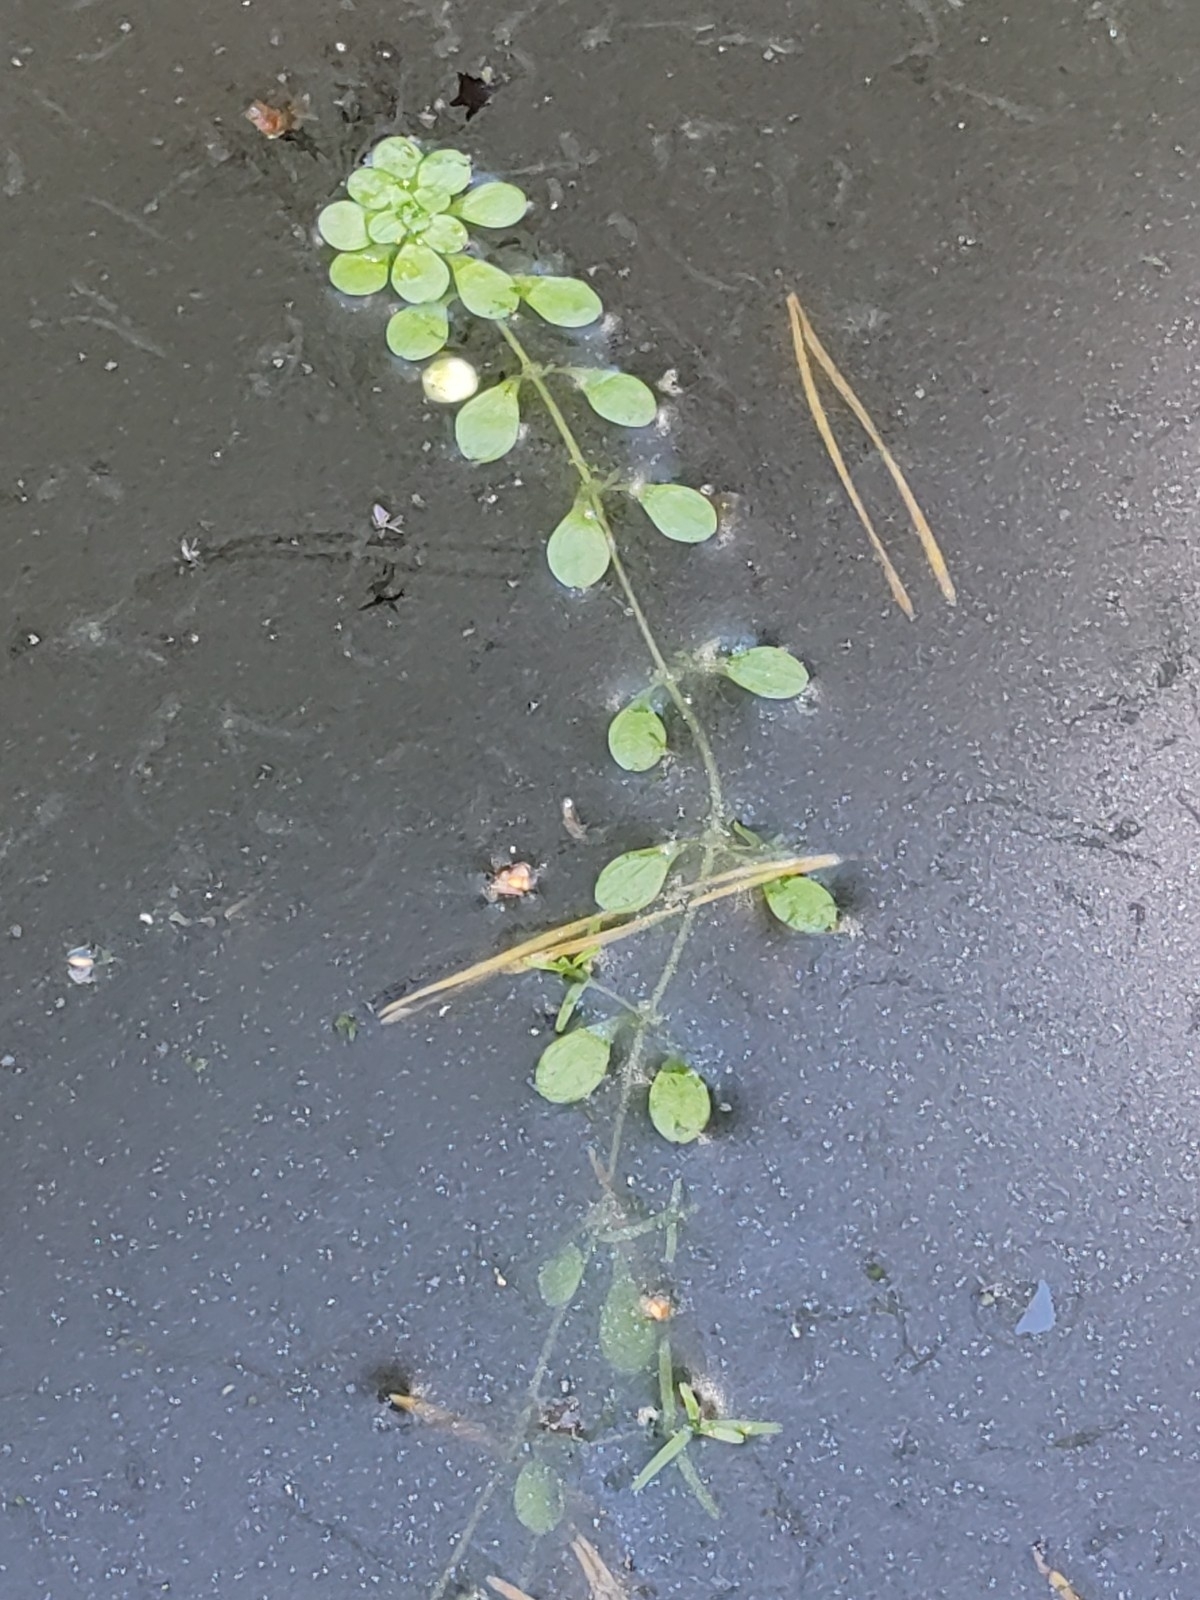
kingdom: Plantae
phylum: Tracheophyta
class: Magnoliopsida
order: Lamiales
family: Plantaginaceae
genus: Callitriche
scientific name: Callitriche
